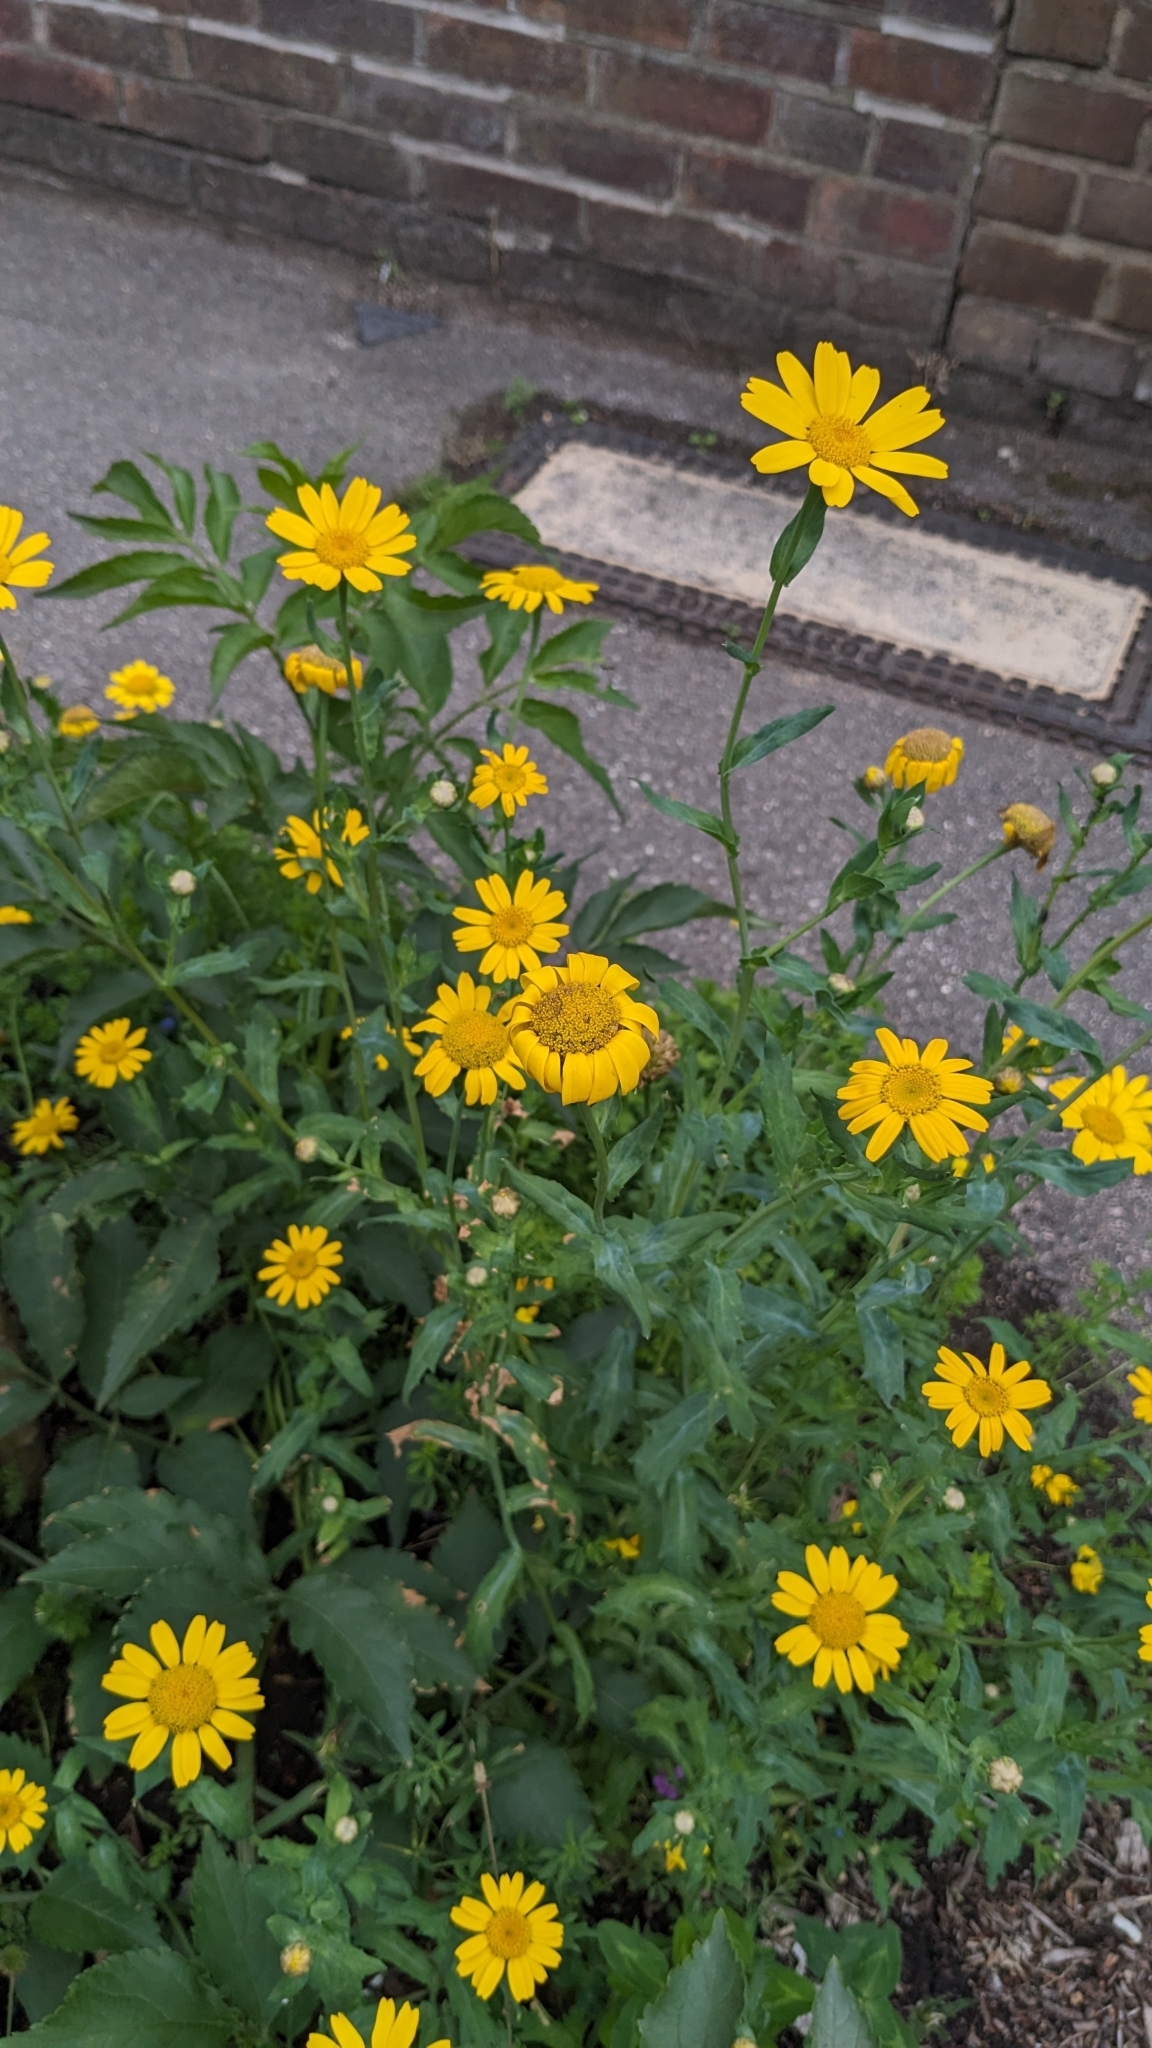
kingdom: Plantae
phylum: Tracheophyta
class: Magnoliopsida
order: Asterales
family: Asteraceae
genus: Glebionis
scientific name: Glebionis segetum
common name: Corndaisy
